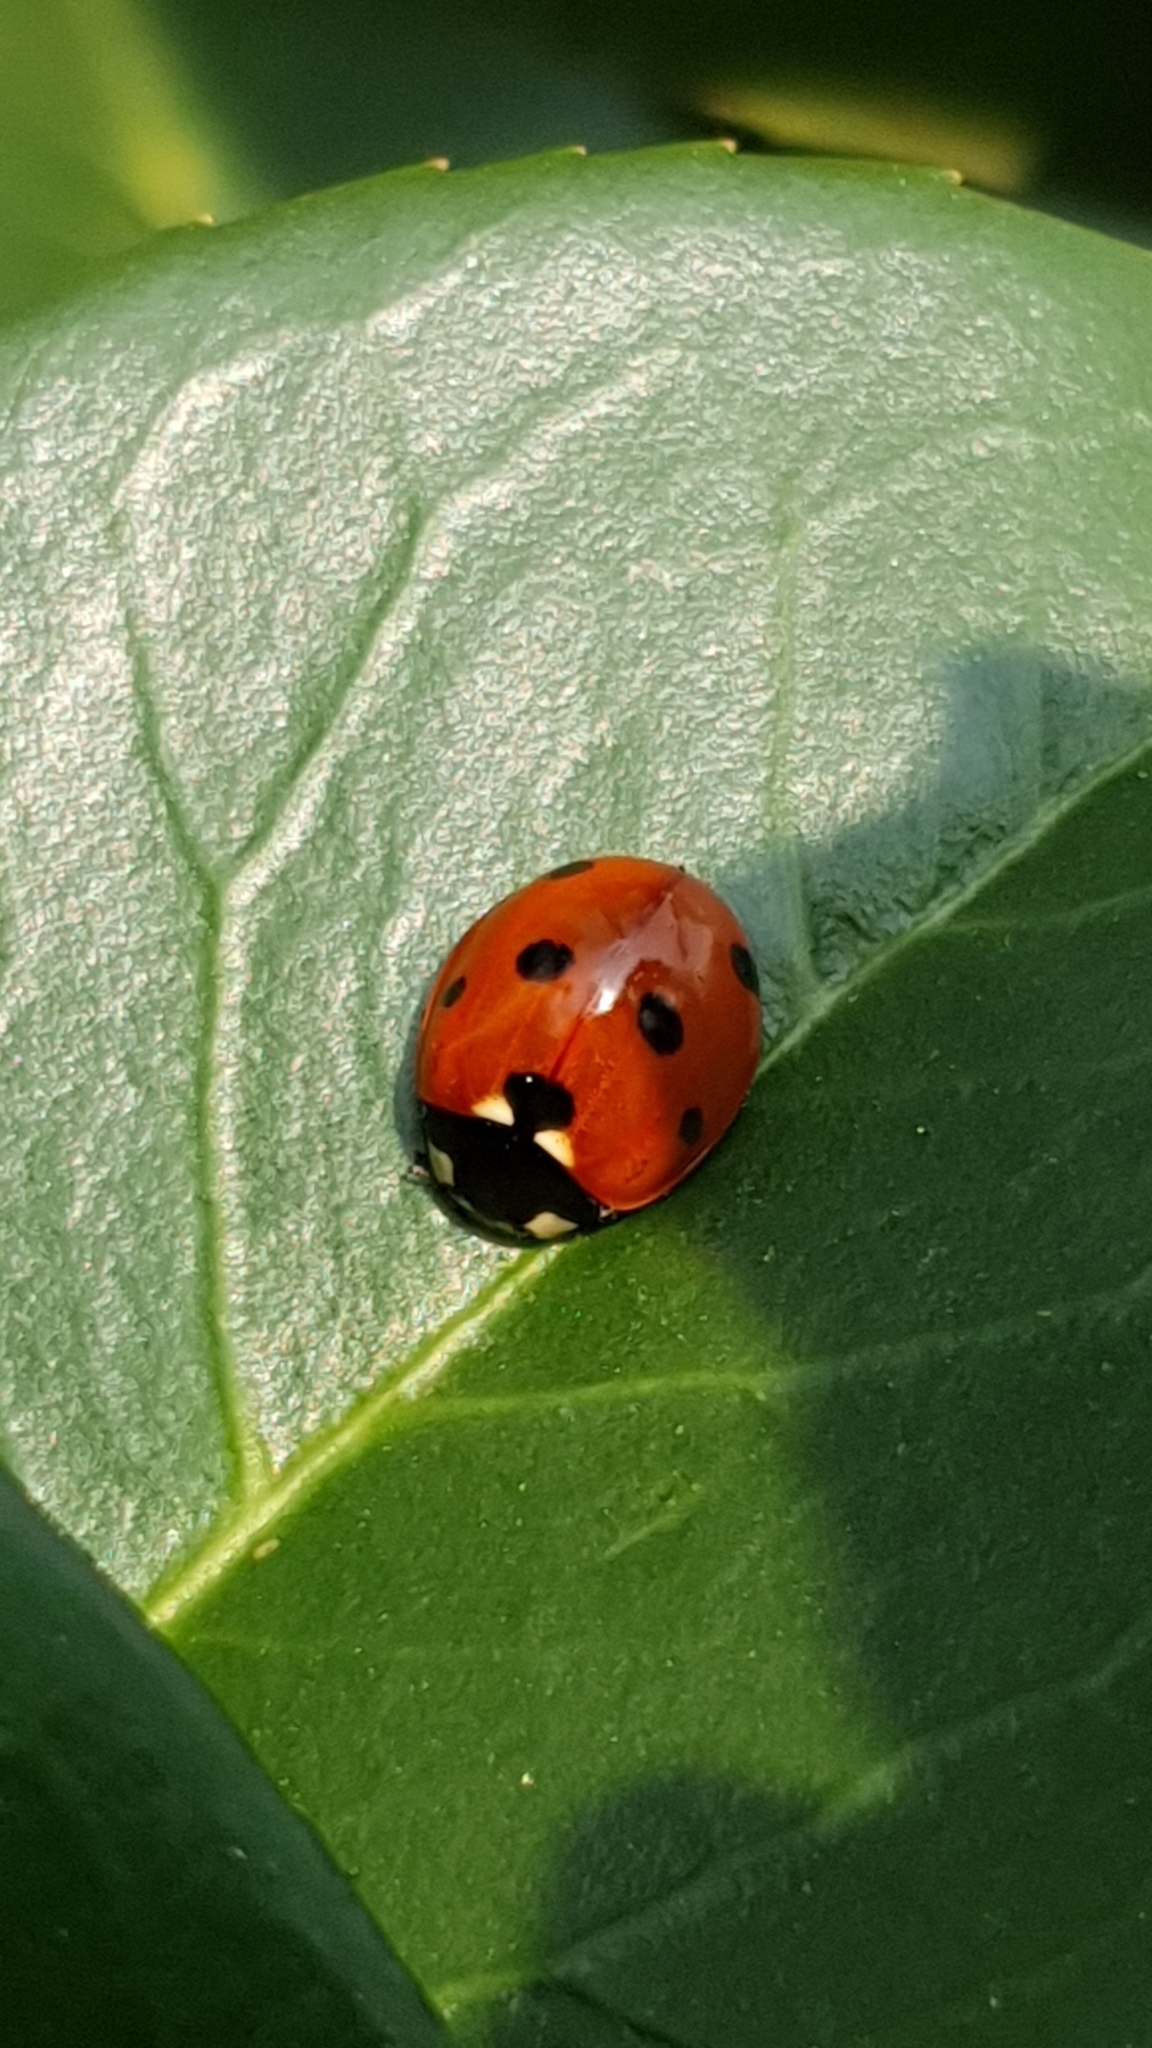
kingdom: Animalia
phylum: Arthropoda
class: Insecta
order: Coleoptera
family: Coccinellidae
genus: Coccinella
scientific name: Coccinella septempunctata
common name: Sevenspotted lady beetle
